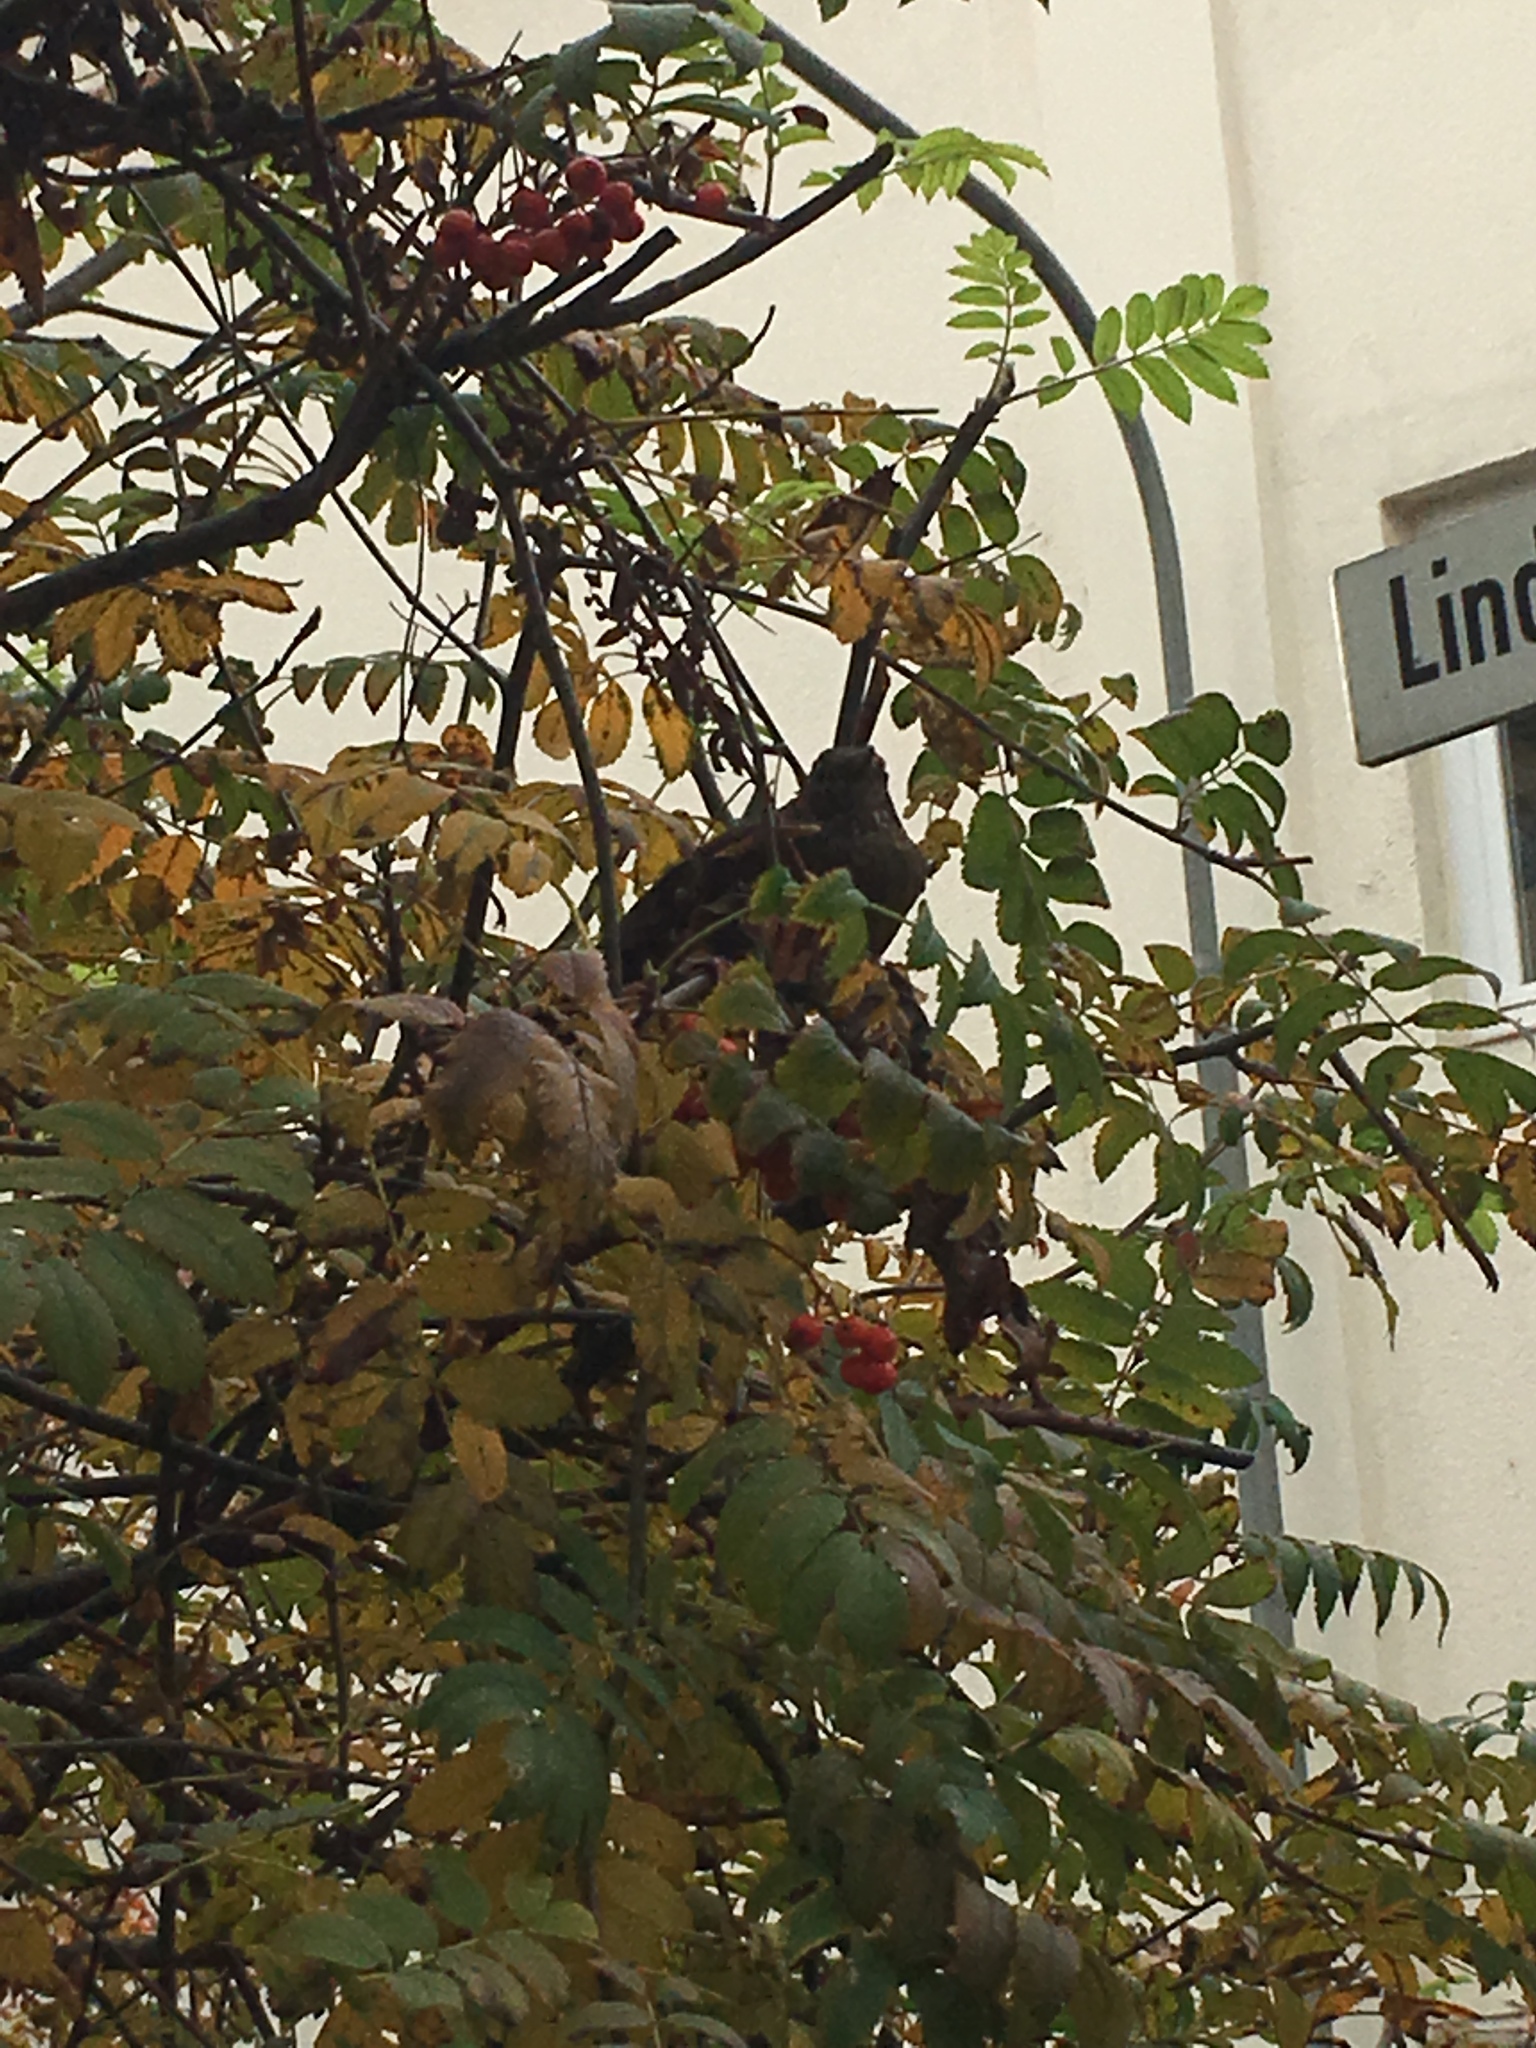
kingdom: Animalia
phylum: Chordata
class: Aves
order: Passeriformes
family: Turdidae
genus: Turdus
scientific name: Turdus merula
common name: Common blackbird
